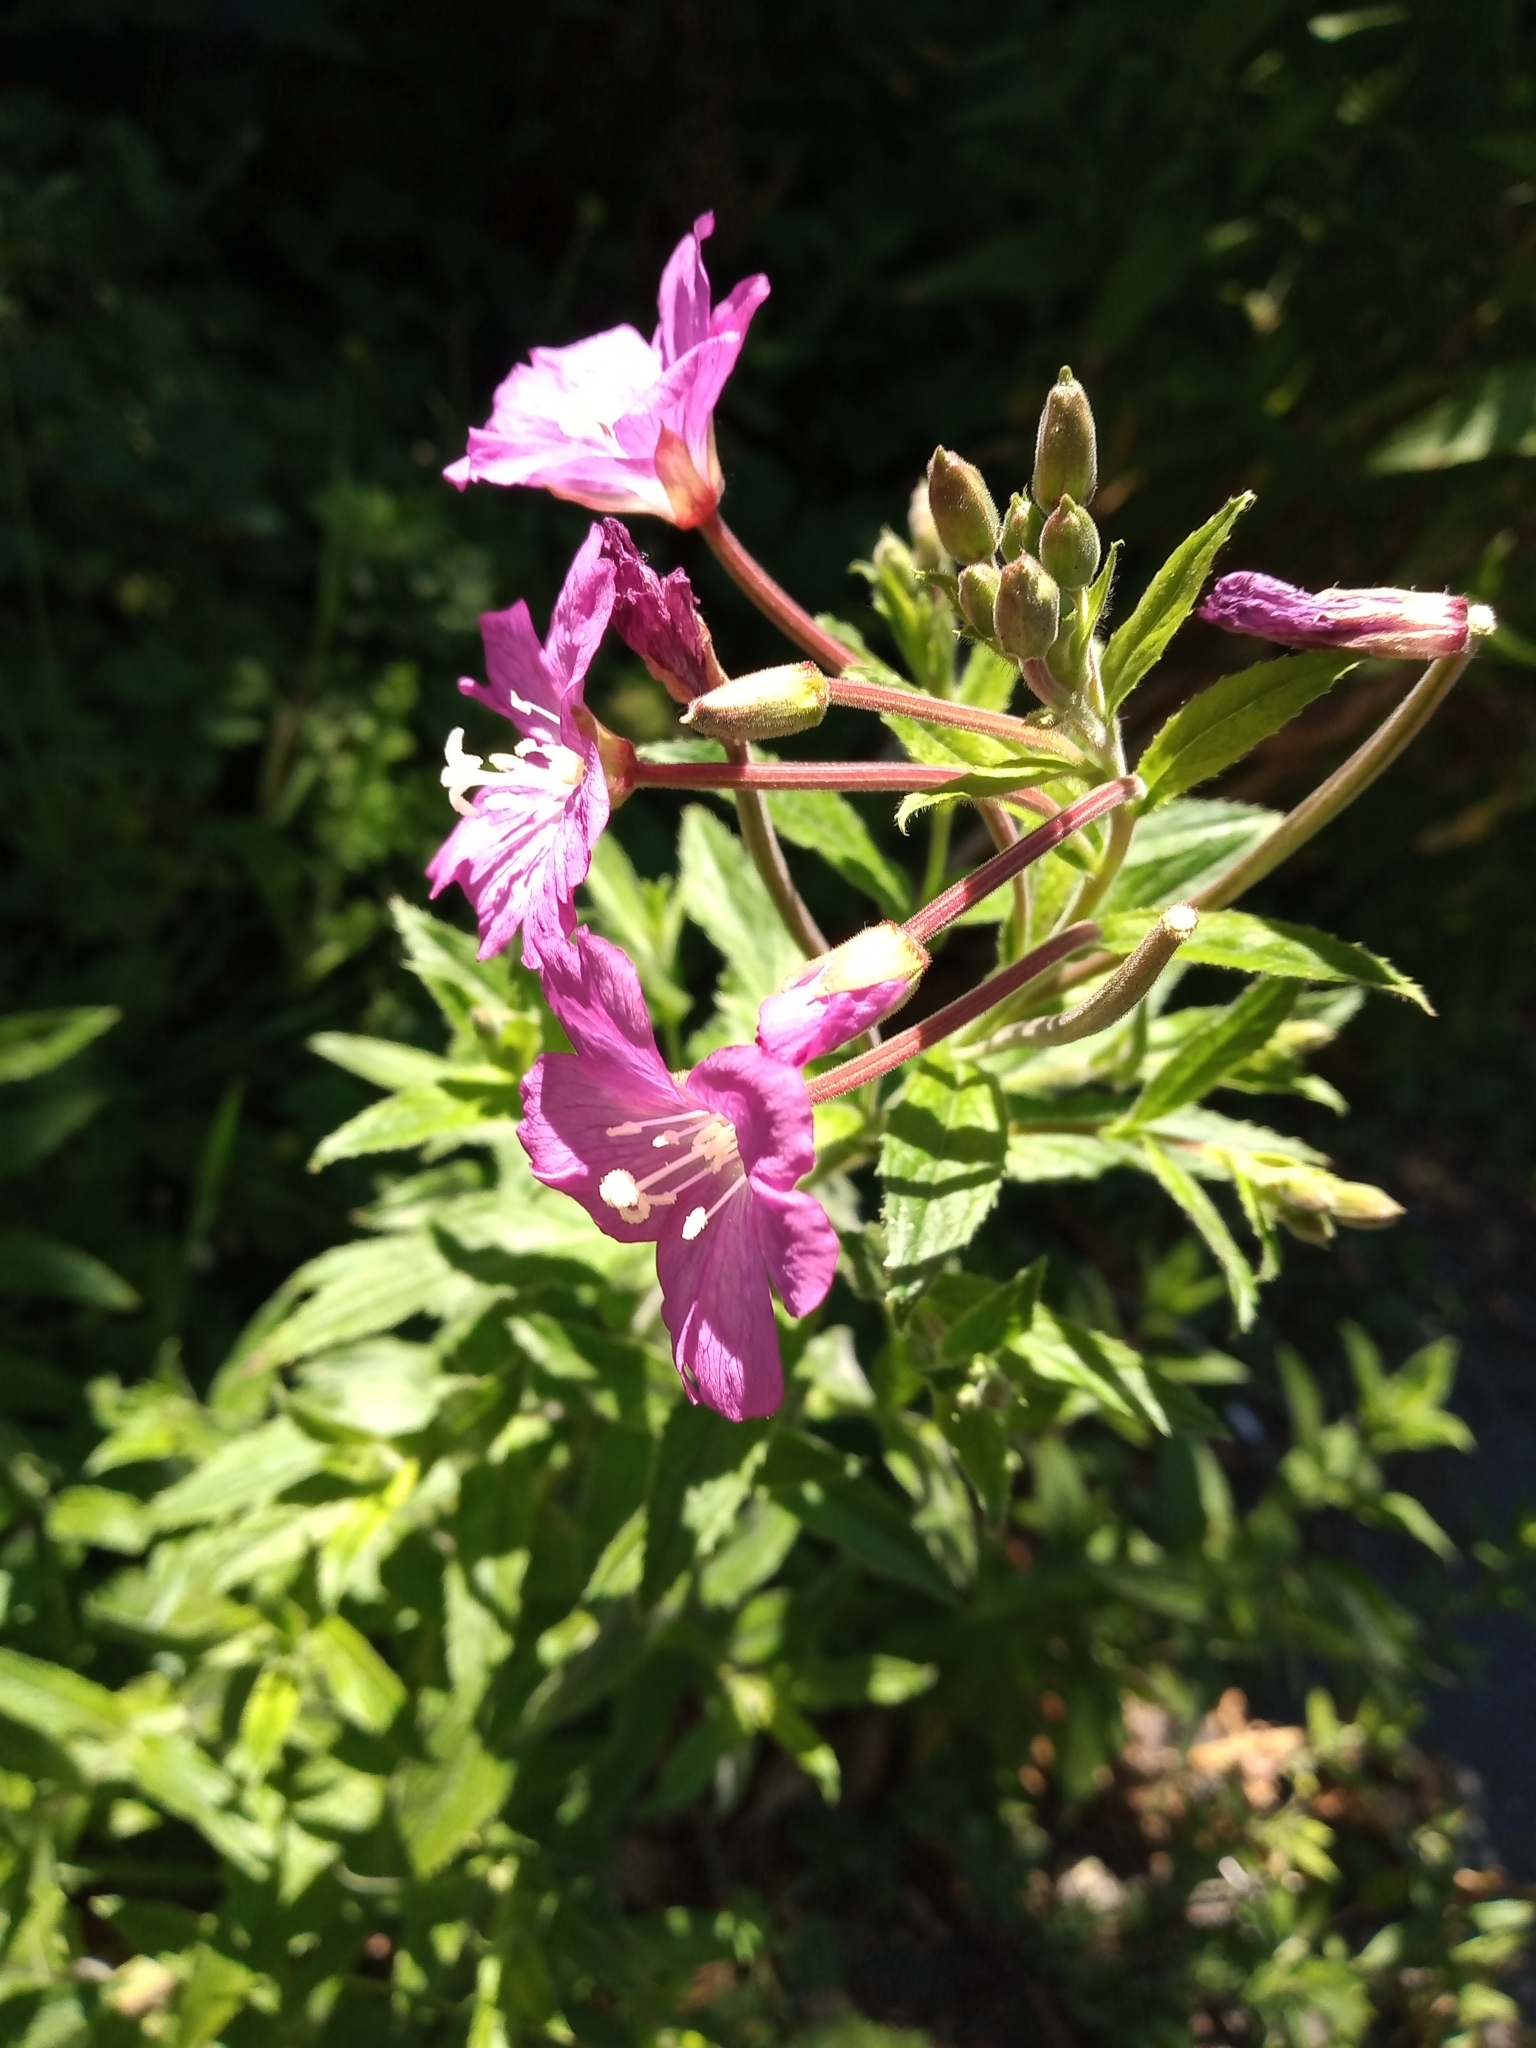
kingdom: Plantae
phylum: Tracheophyta
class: Magnoliopsida
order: Myrtales
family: Onagraceae
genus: Epilobium
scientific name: Epilobium hirsutum
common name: Great willowherb
